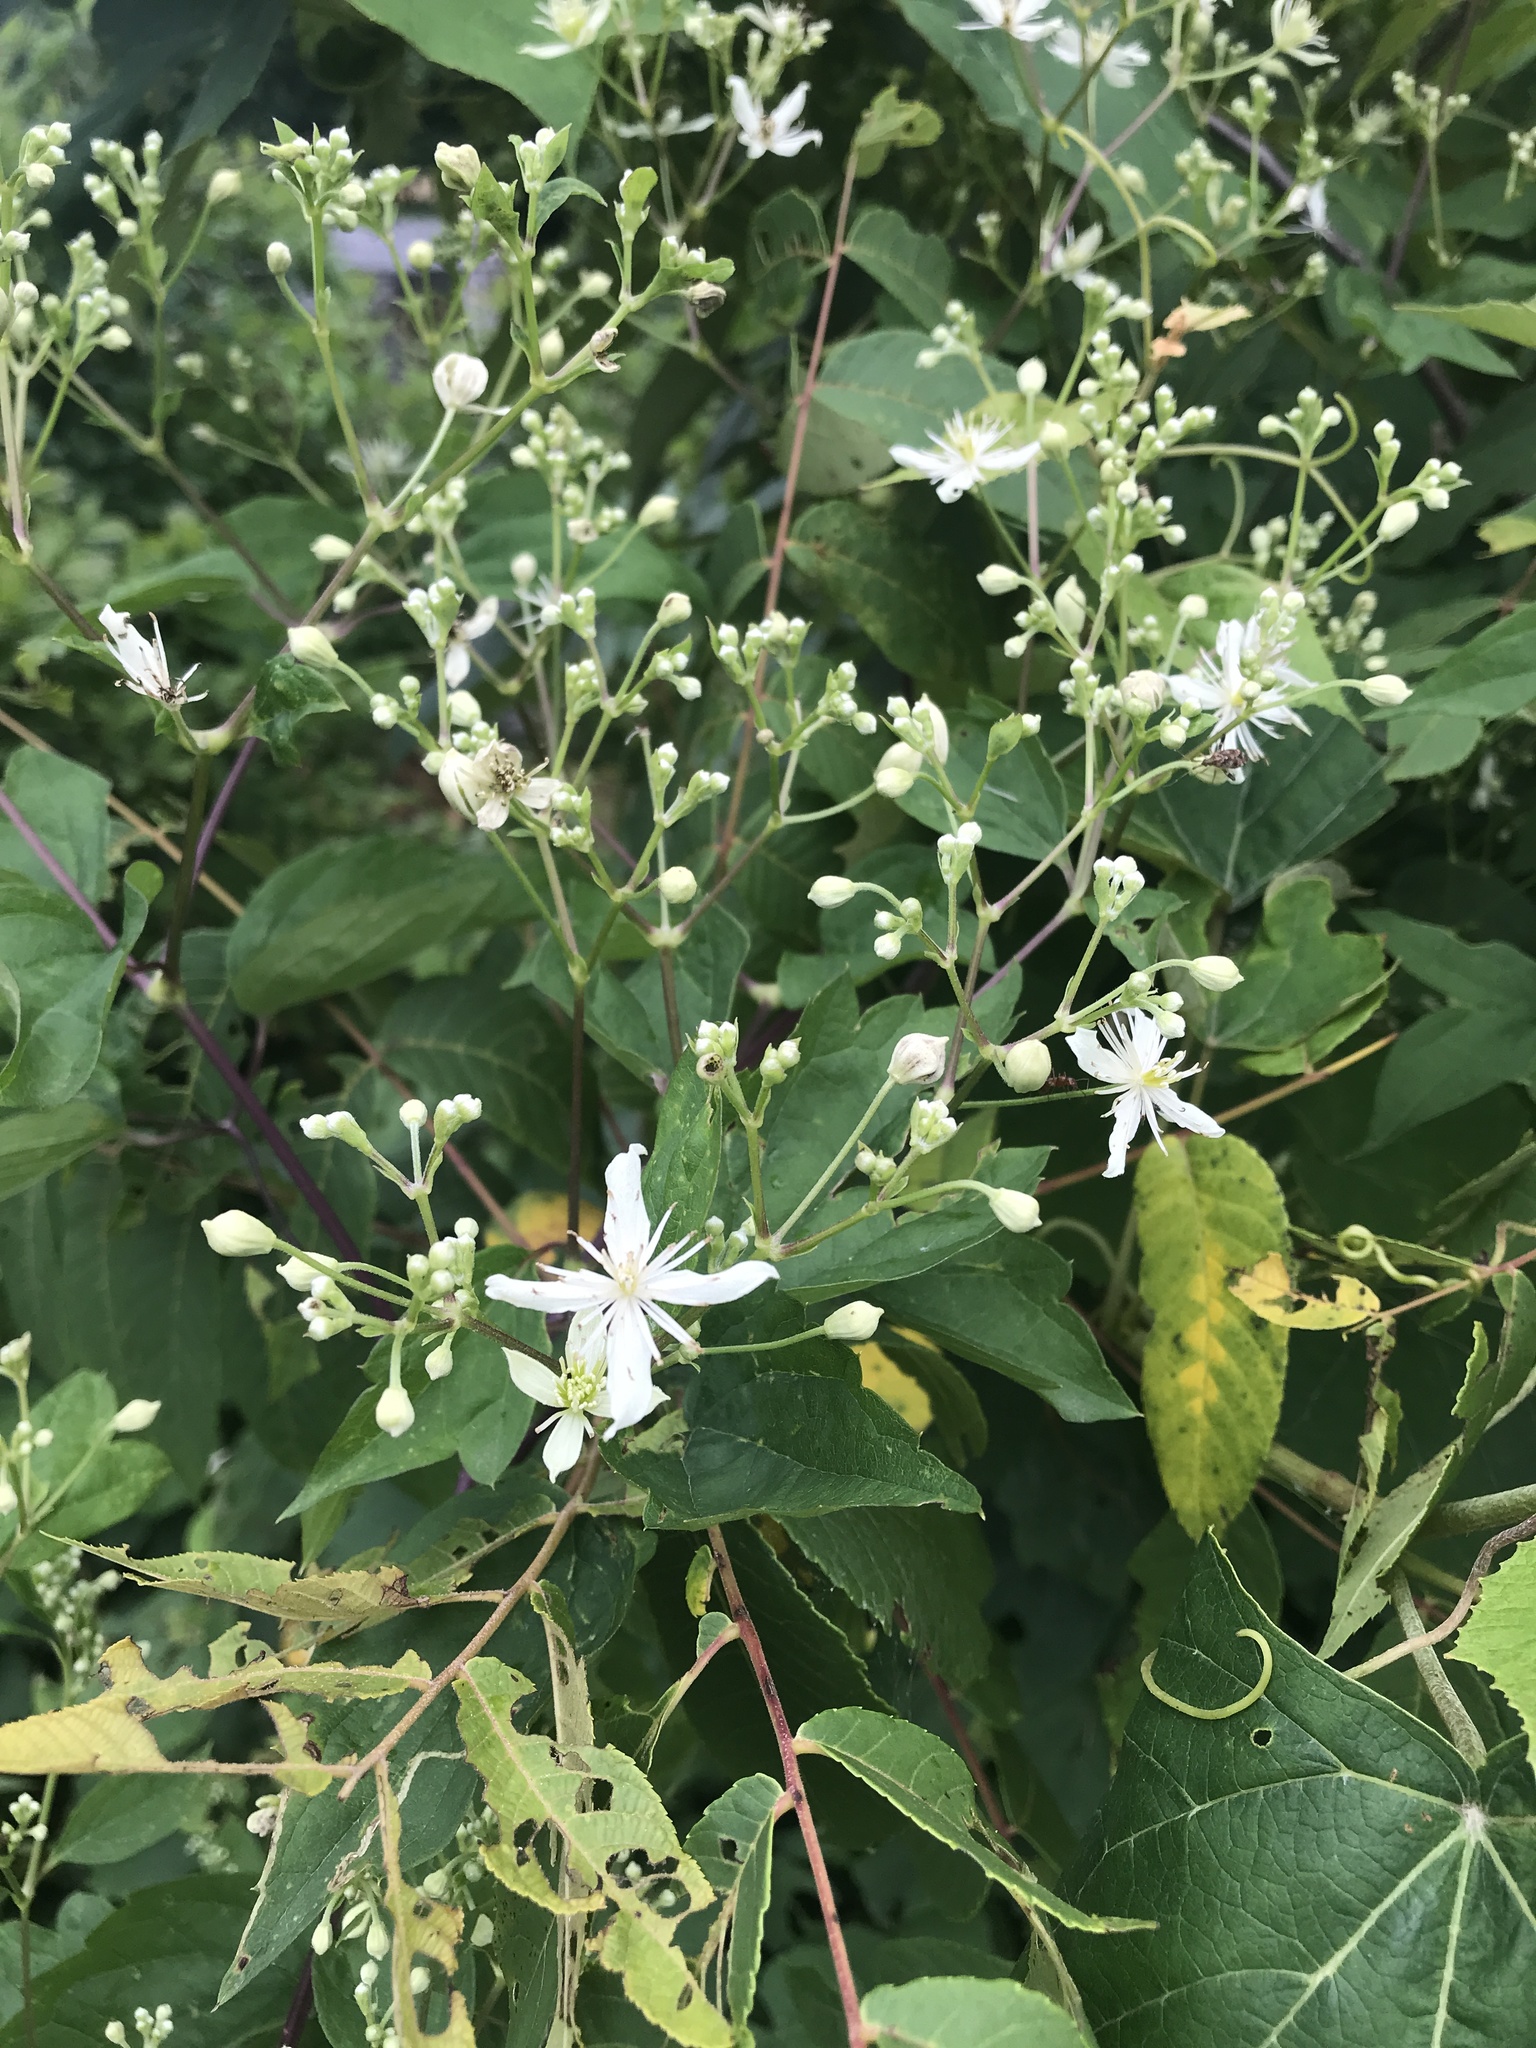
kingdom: Plantae
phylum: Tracheophyta
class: Magnoliopsida
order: Ranunculales
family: Ranunculaceae
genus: Clematis
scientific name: Clematis virginiana
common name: Virgin's-bower
